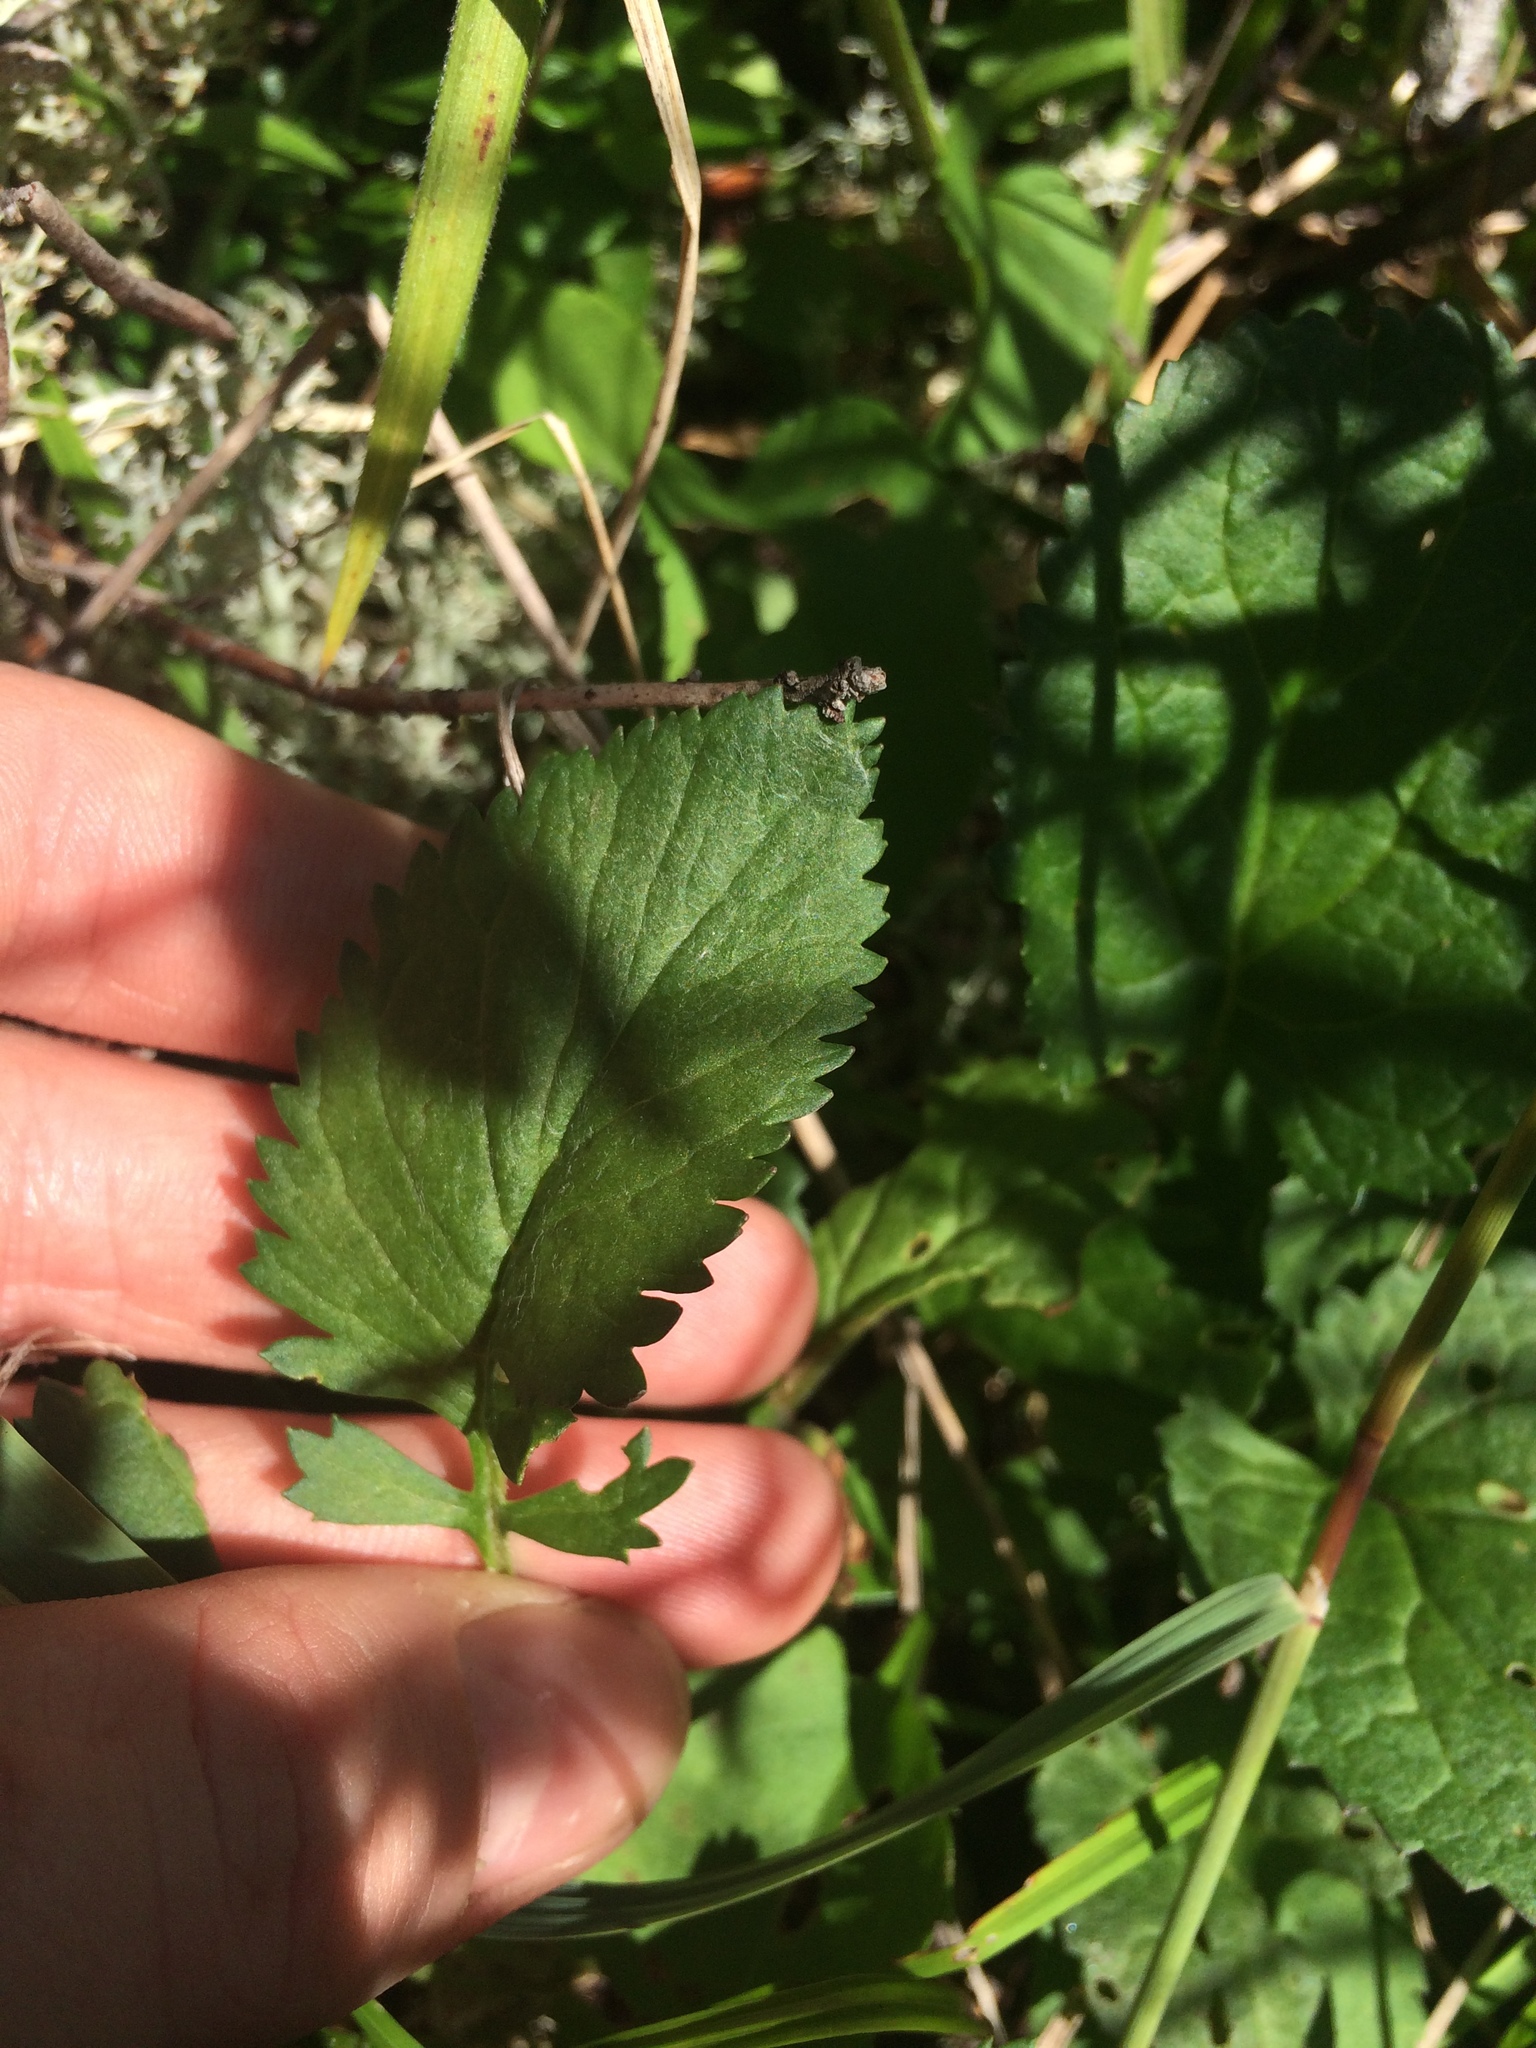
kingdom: Plantae
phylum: Tracheophyta
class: Magnoliopsida
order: Asterales
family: Asteraceae
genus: Packera
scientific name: Packera aurea
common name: Golden groundsel
